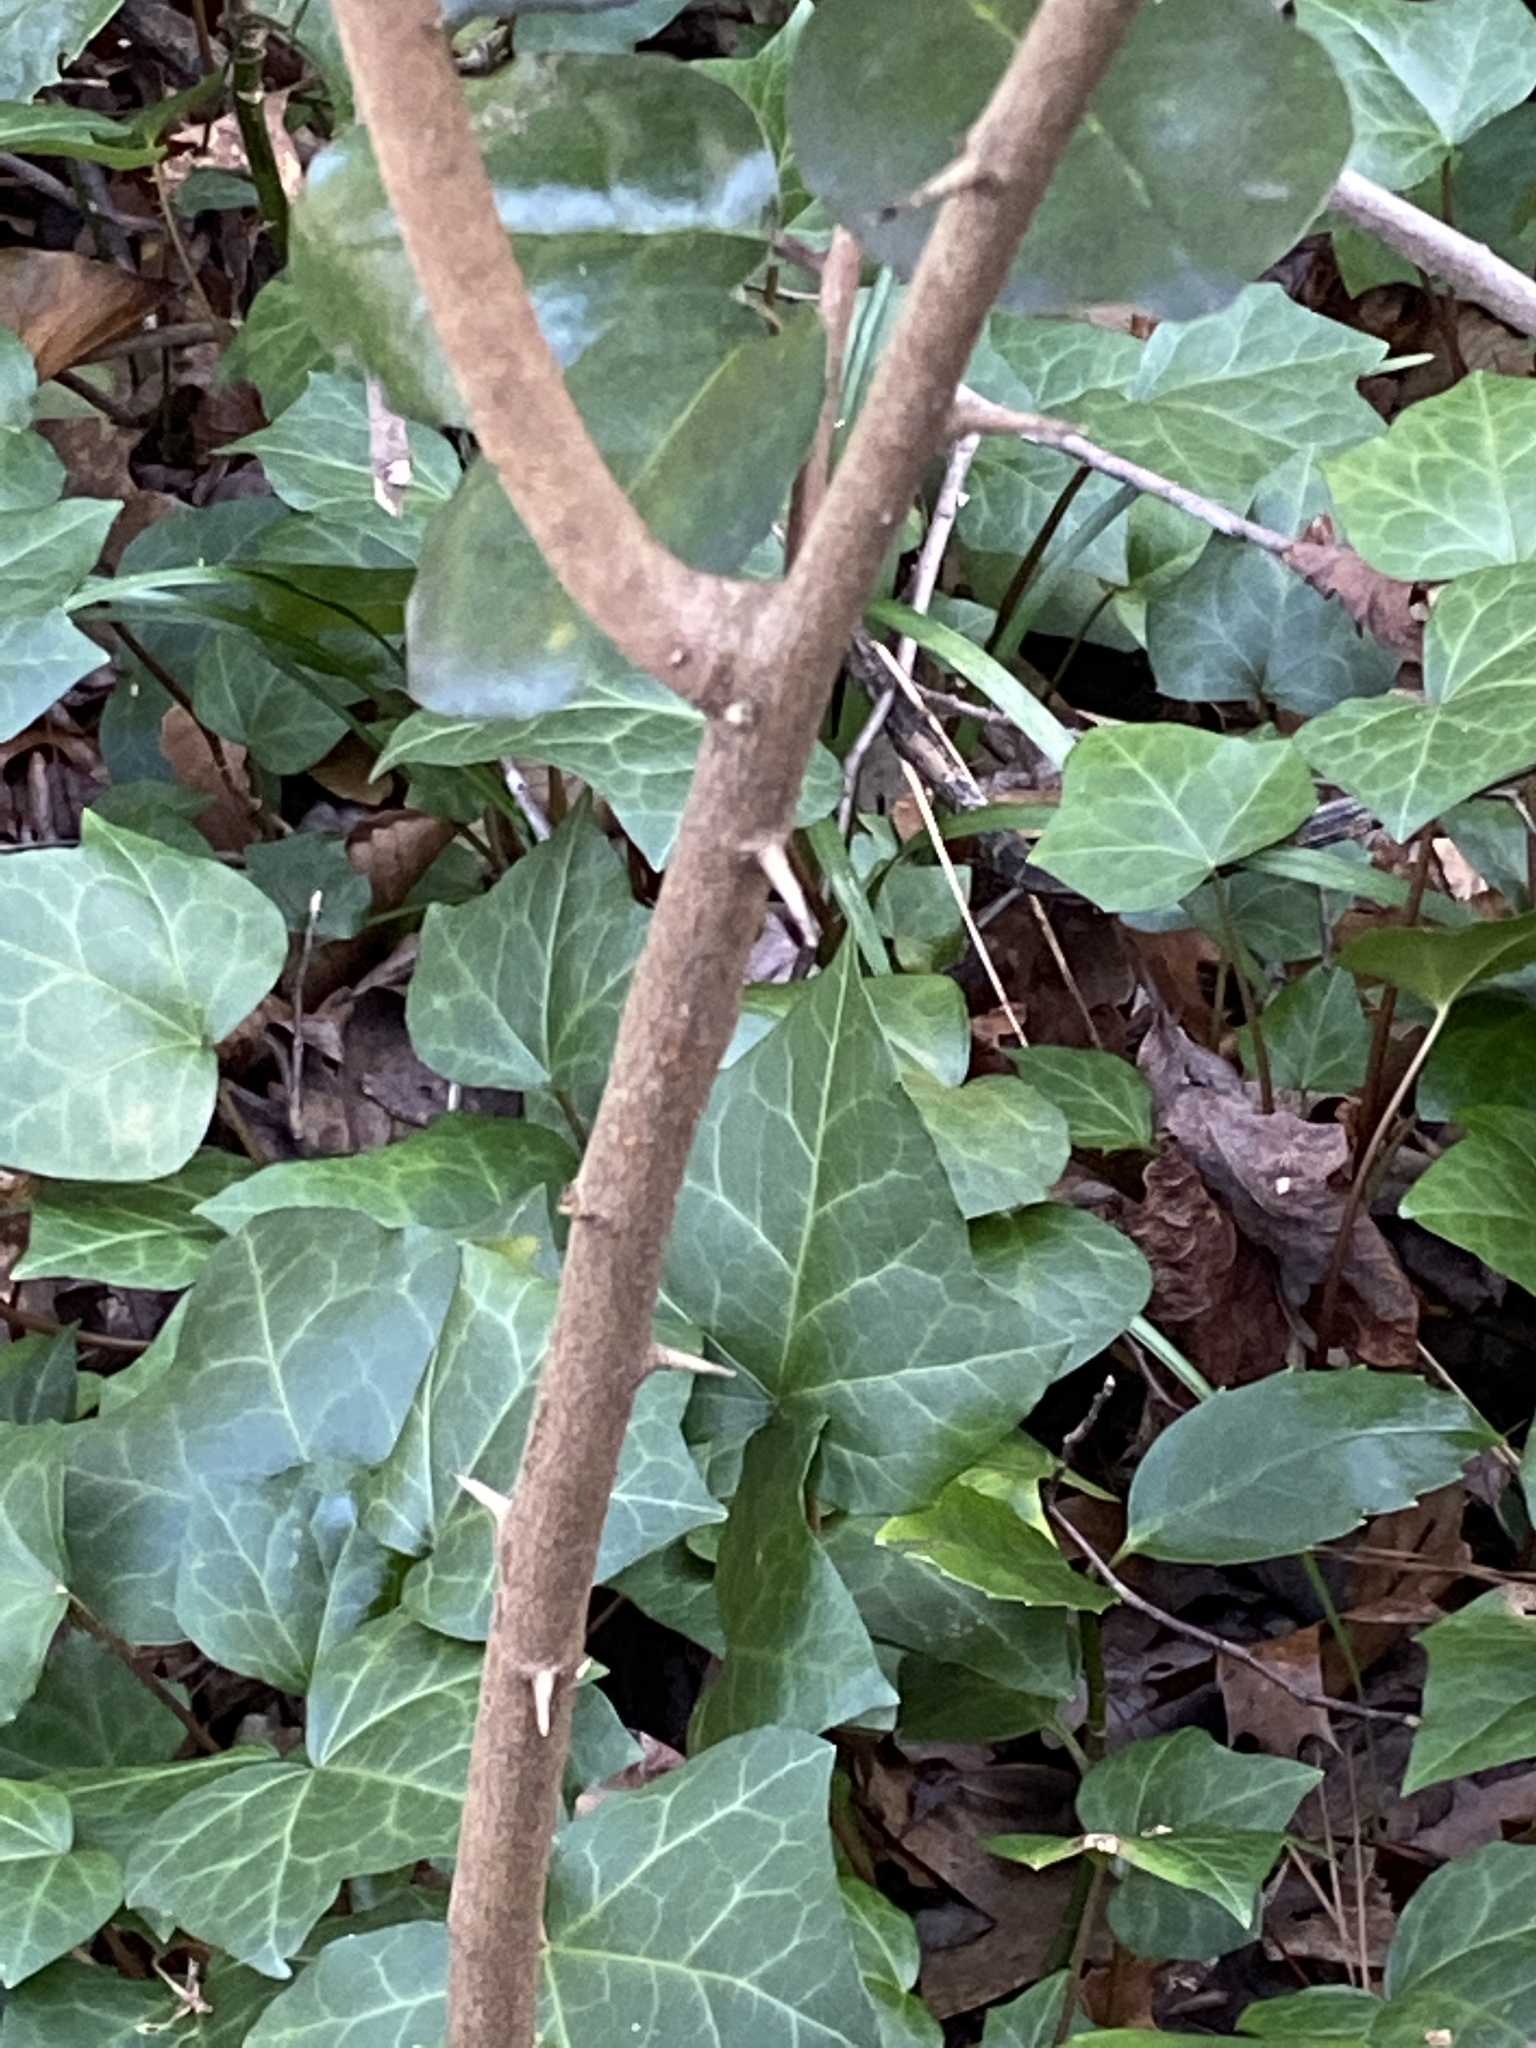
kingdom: Plantae
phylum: Tracheophyta
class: Magnoliopsida
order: Rosales
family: Elaeagnaceae
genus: Elaeagnus
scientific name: Elaeagnus pungens
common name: Spiny oleaster
